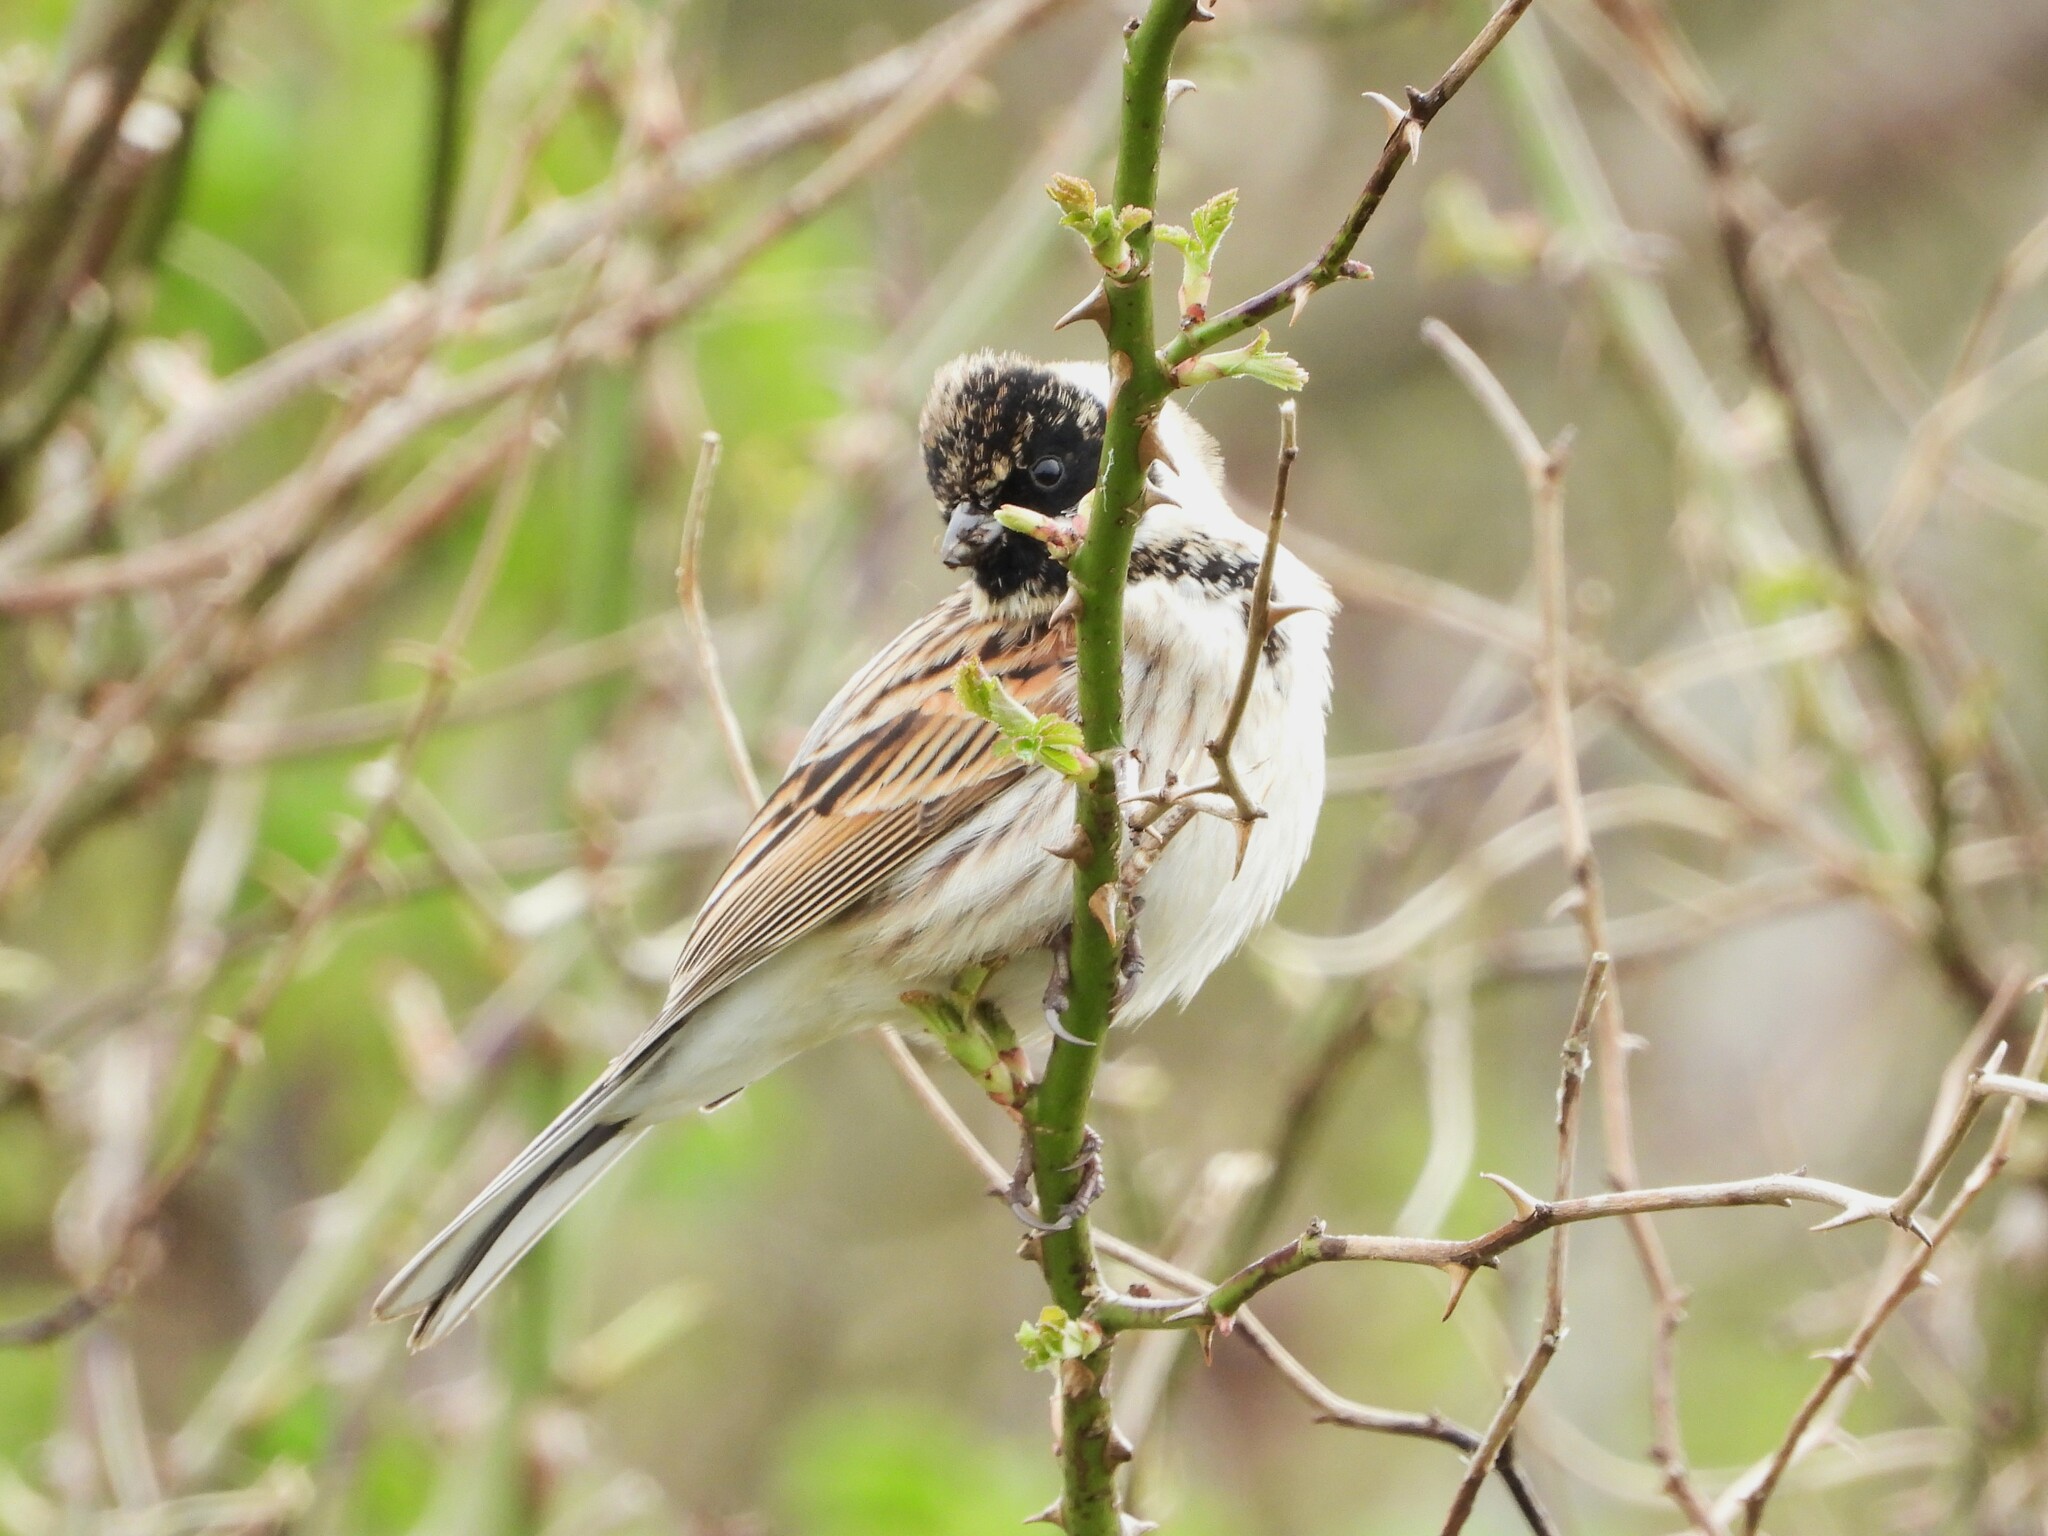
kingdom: Animalia
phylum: Chordata
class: Aves
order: Passeriformes
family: Emberizidae
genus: Emberiza
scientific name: Emberiza schoeniclus
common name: Reed bunting
